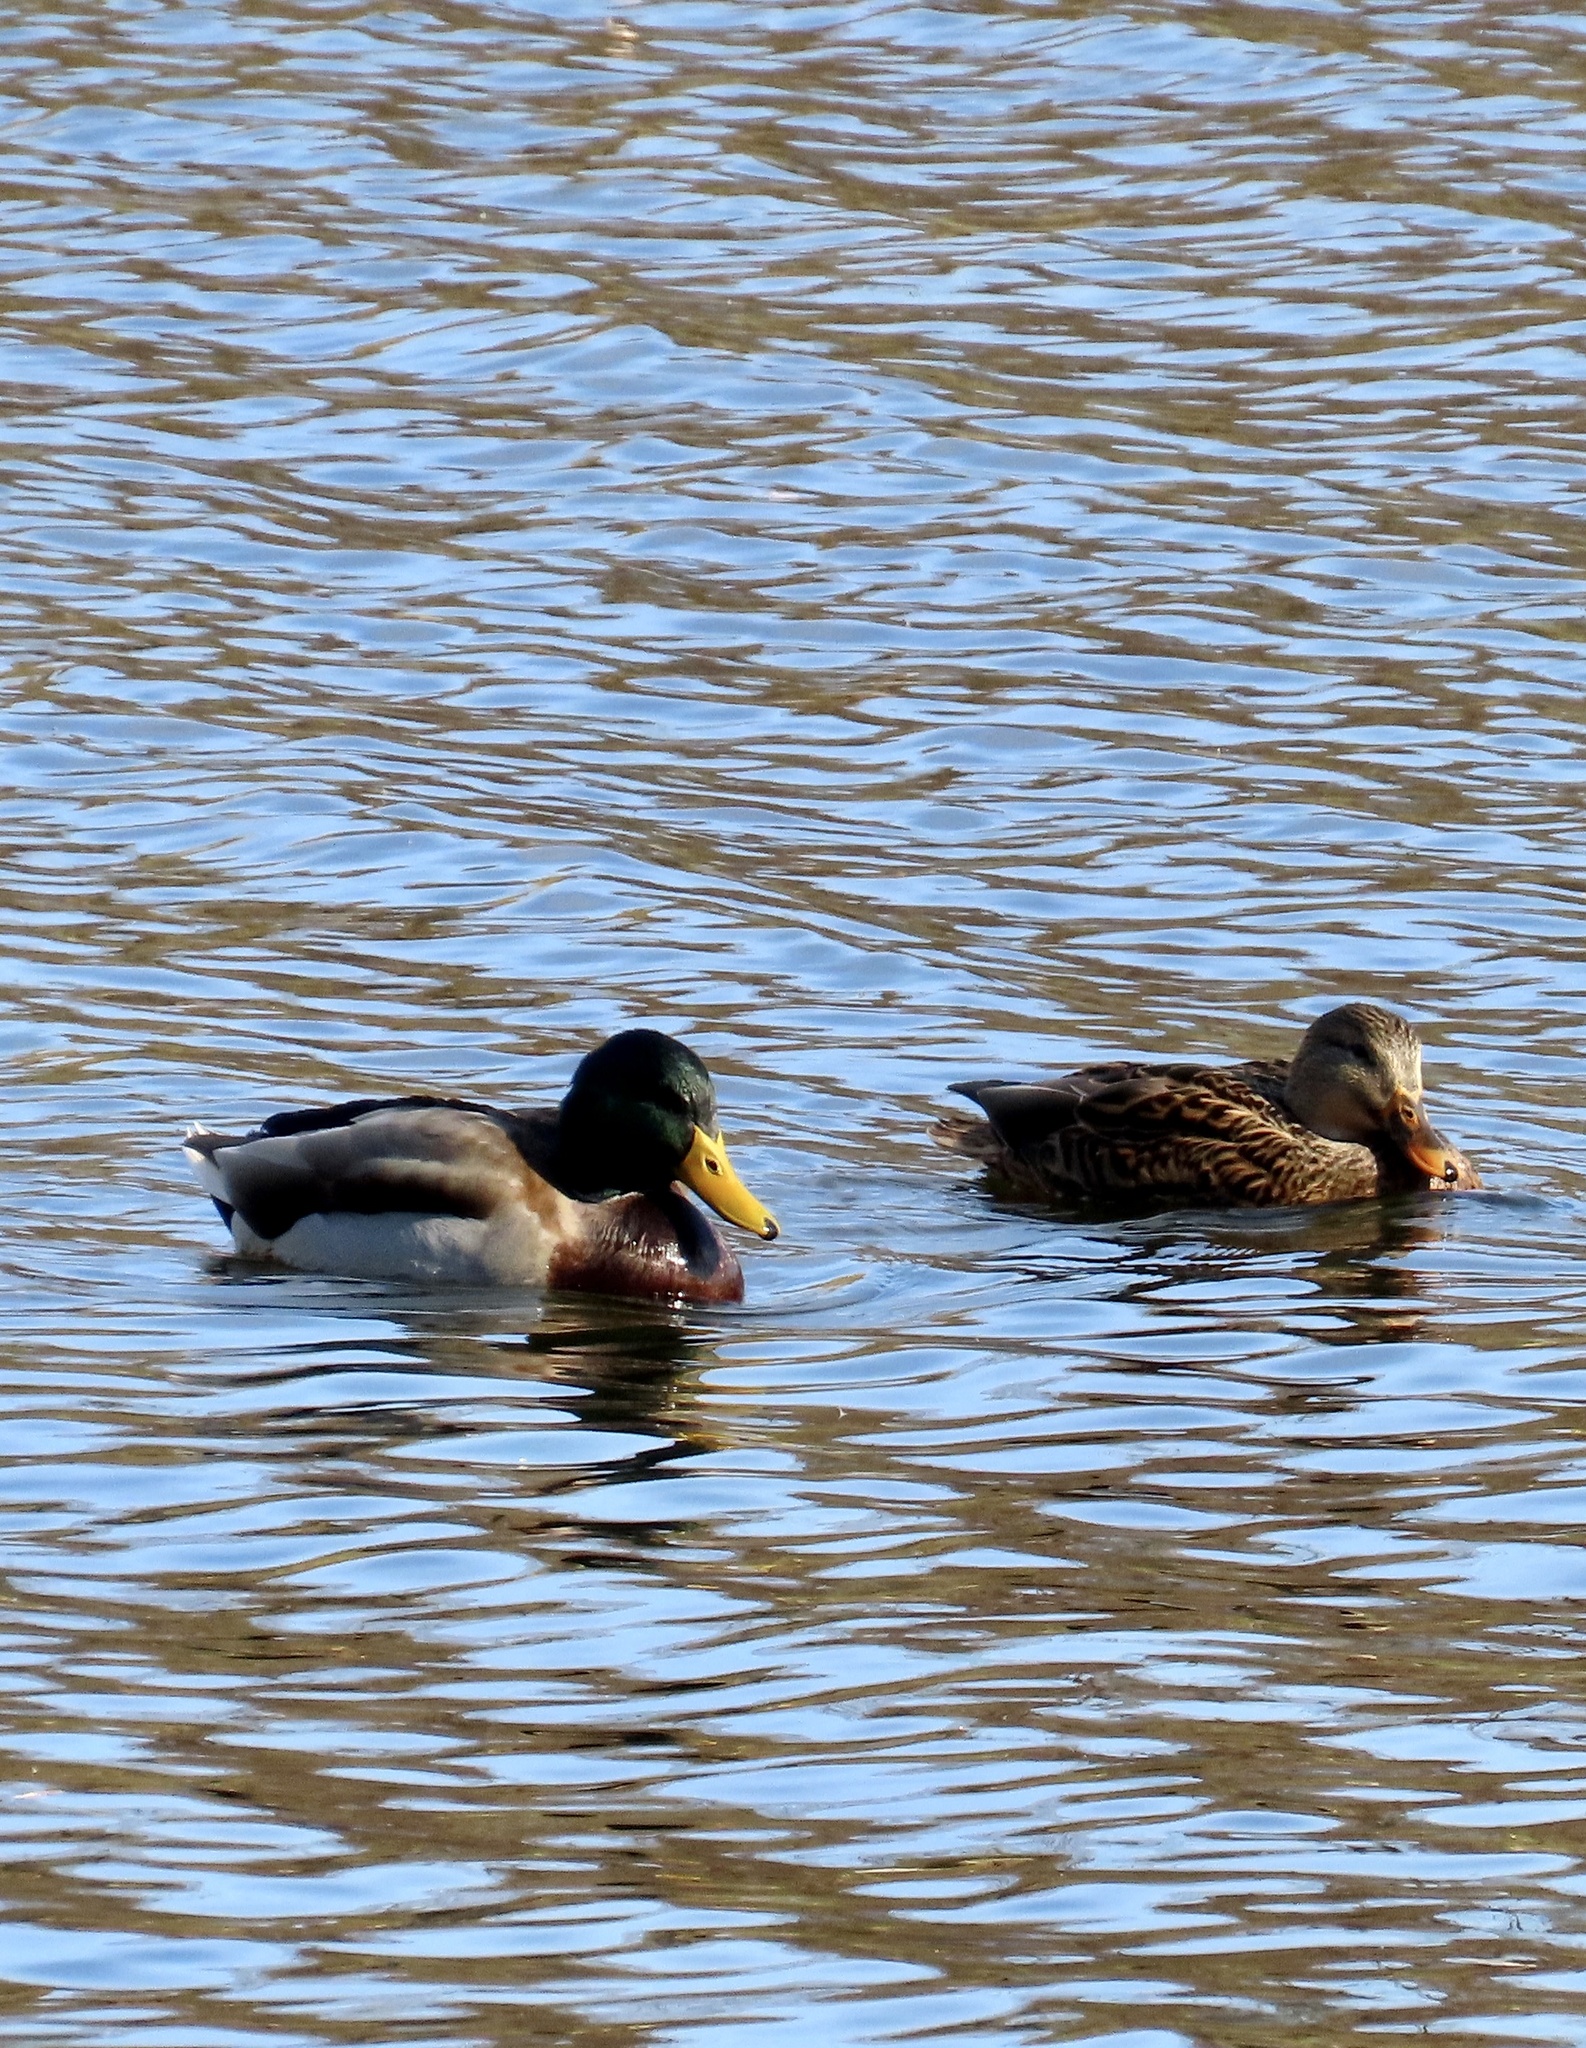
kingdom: Animalia
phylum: Chordata
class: Aves
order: Anseriformes
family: Anatidae
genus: Anas
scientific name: Anas platyrhynchos
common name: Mallard
